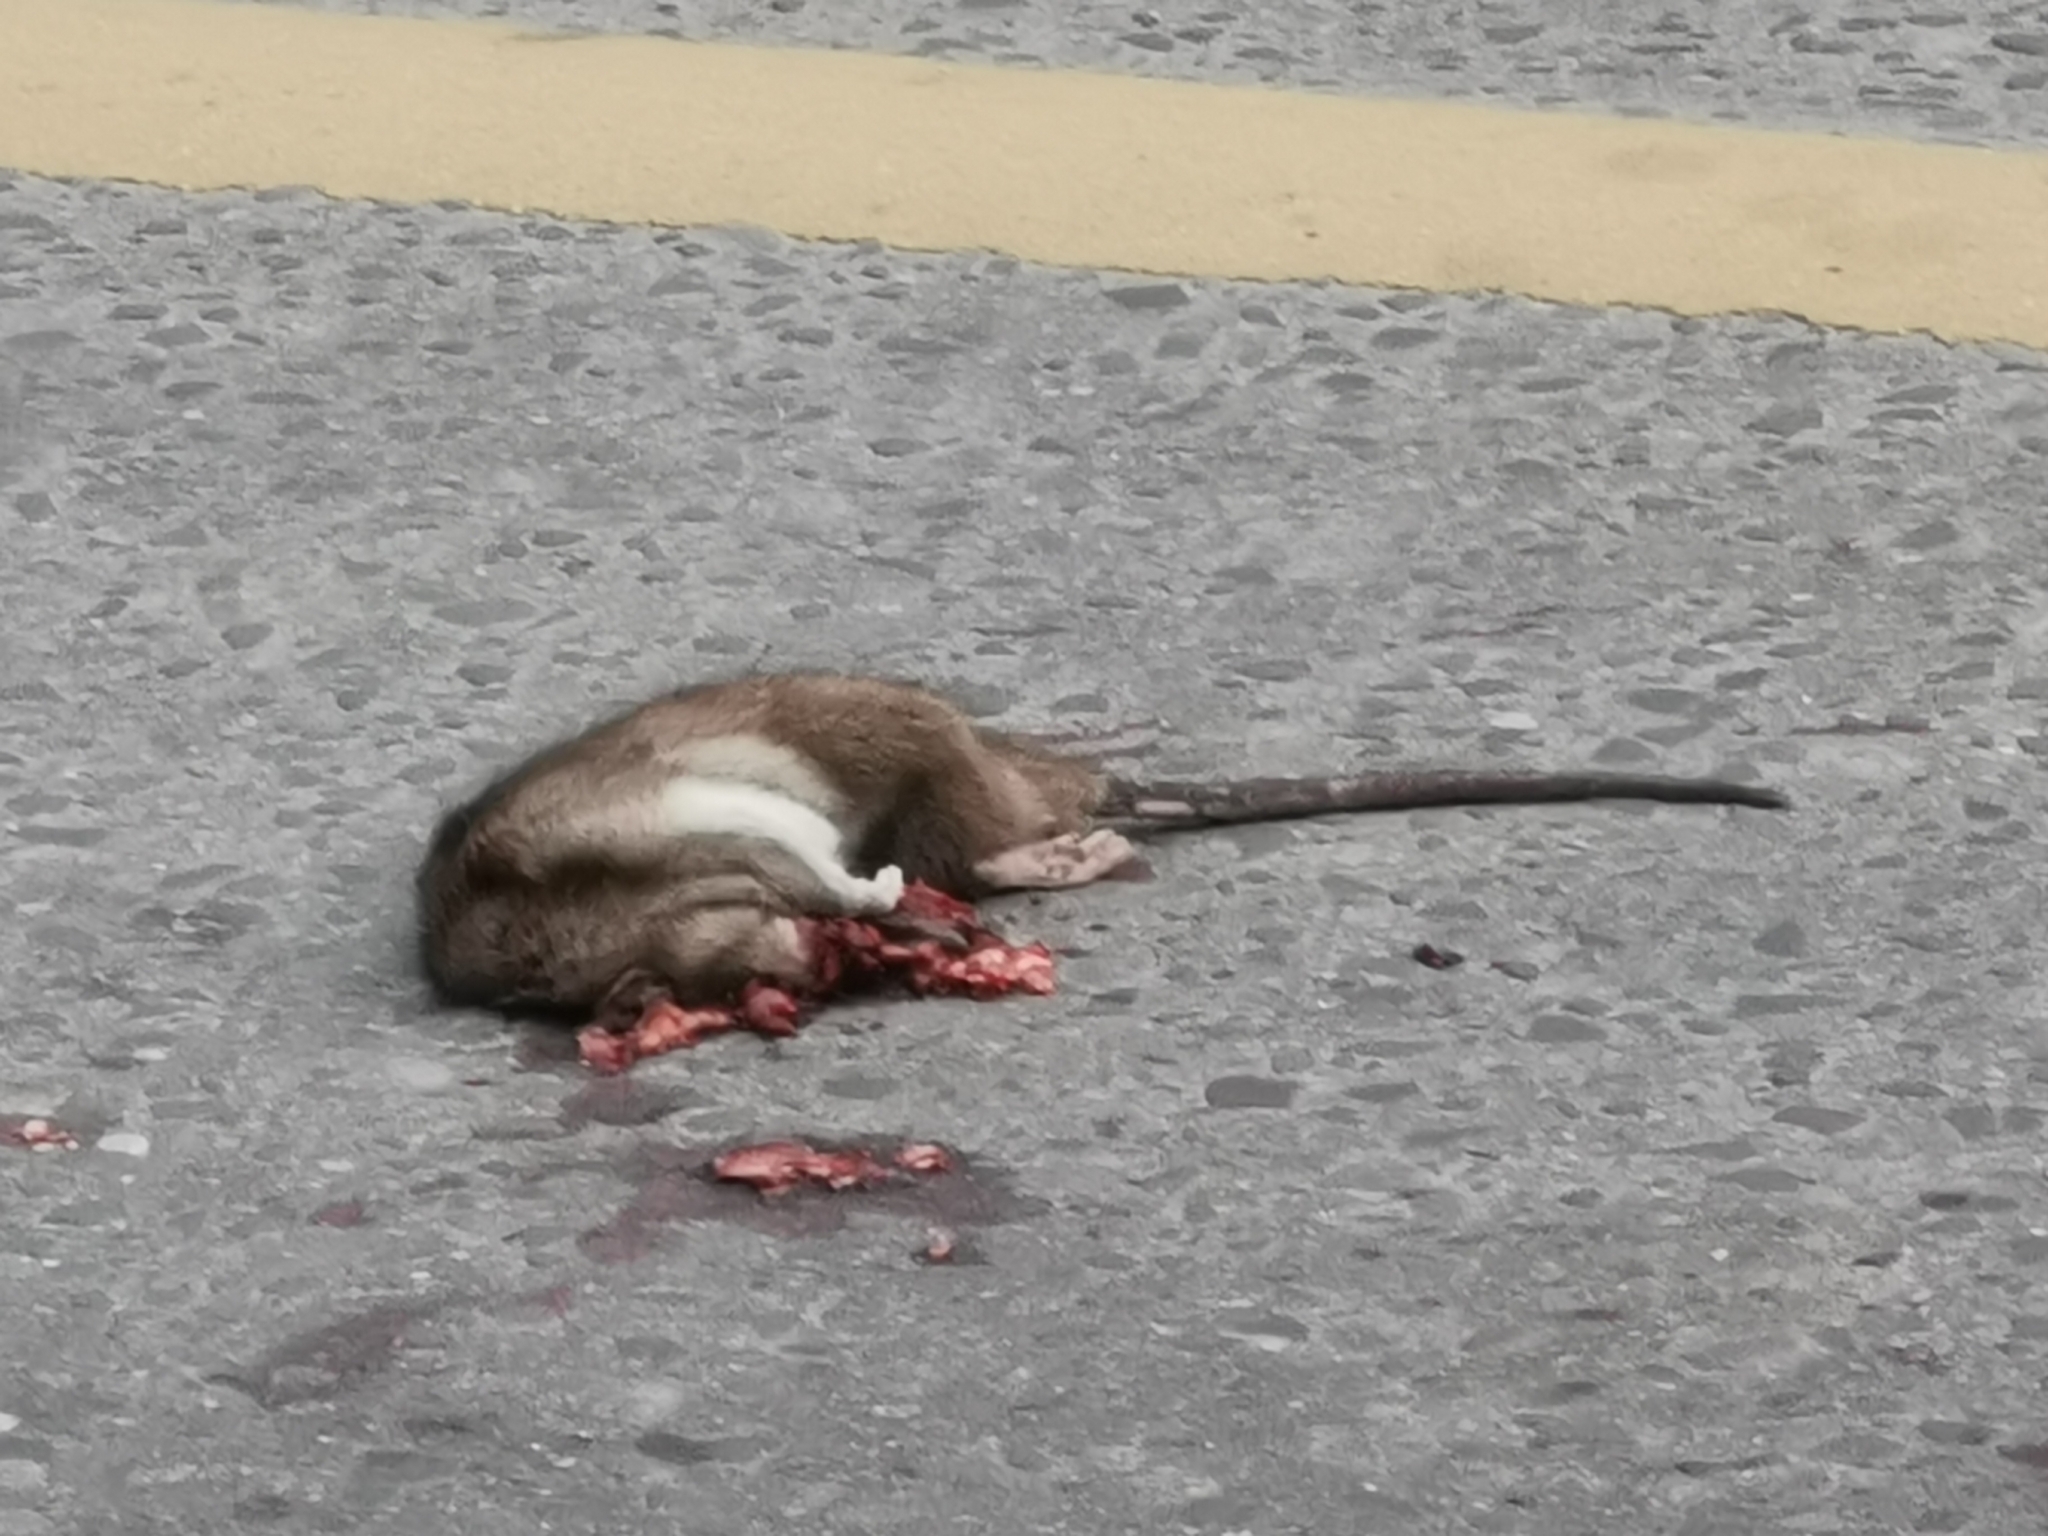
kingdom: Animalia
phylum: Chordata
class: Mammalia
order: Rodentia
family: Muridae
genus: Rattus
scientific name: Rattus norvegicus
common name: Brown rat
